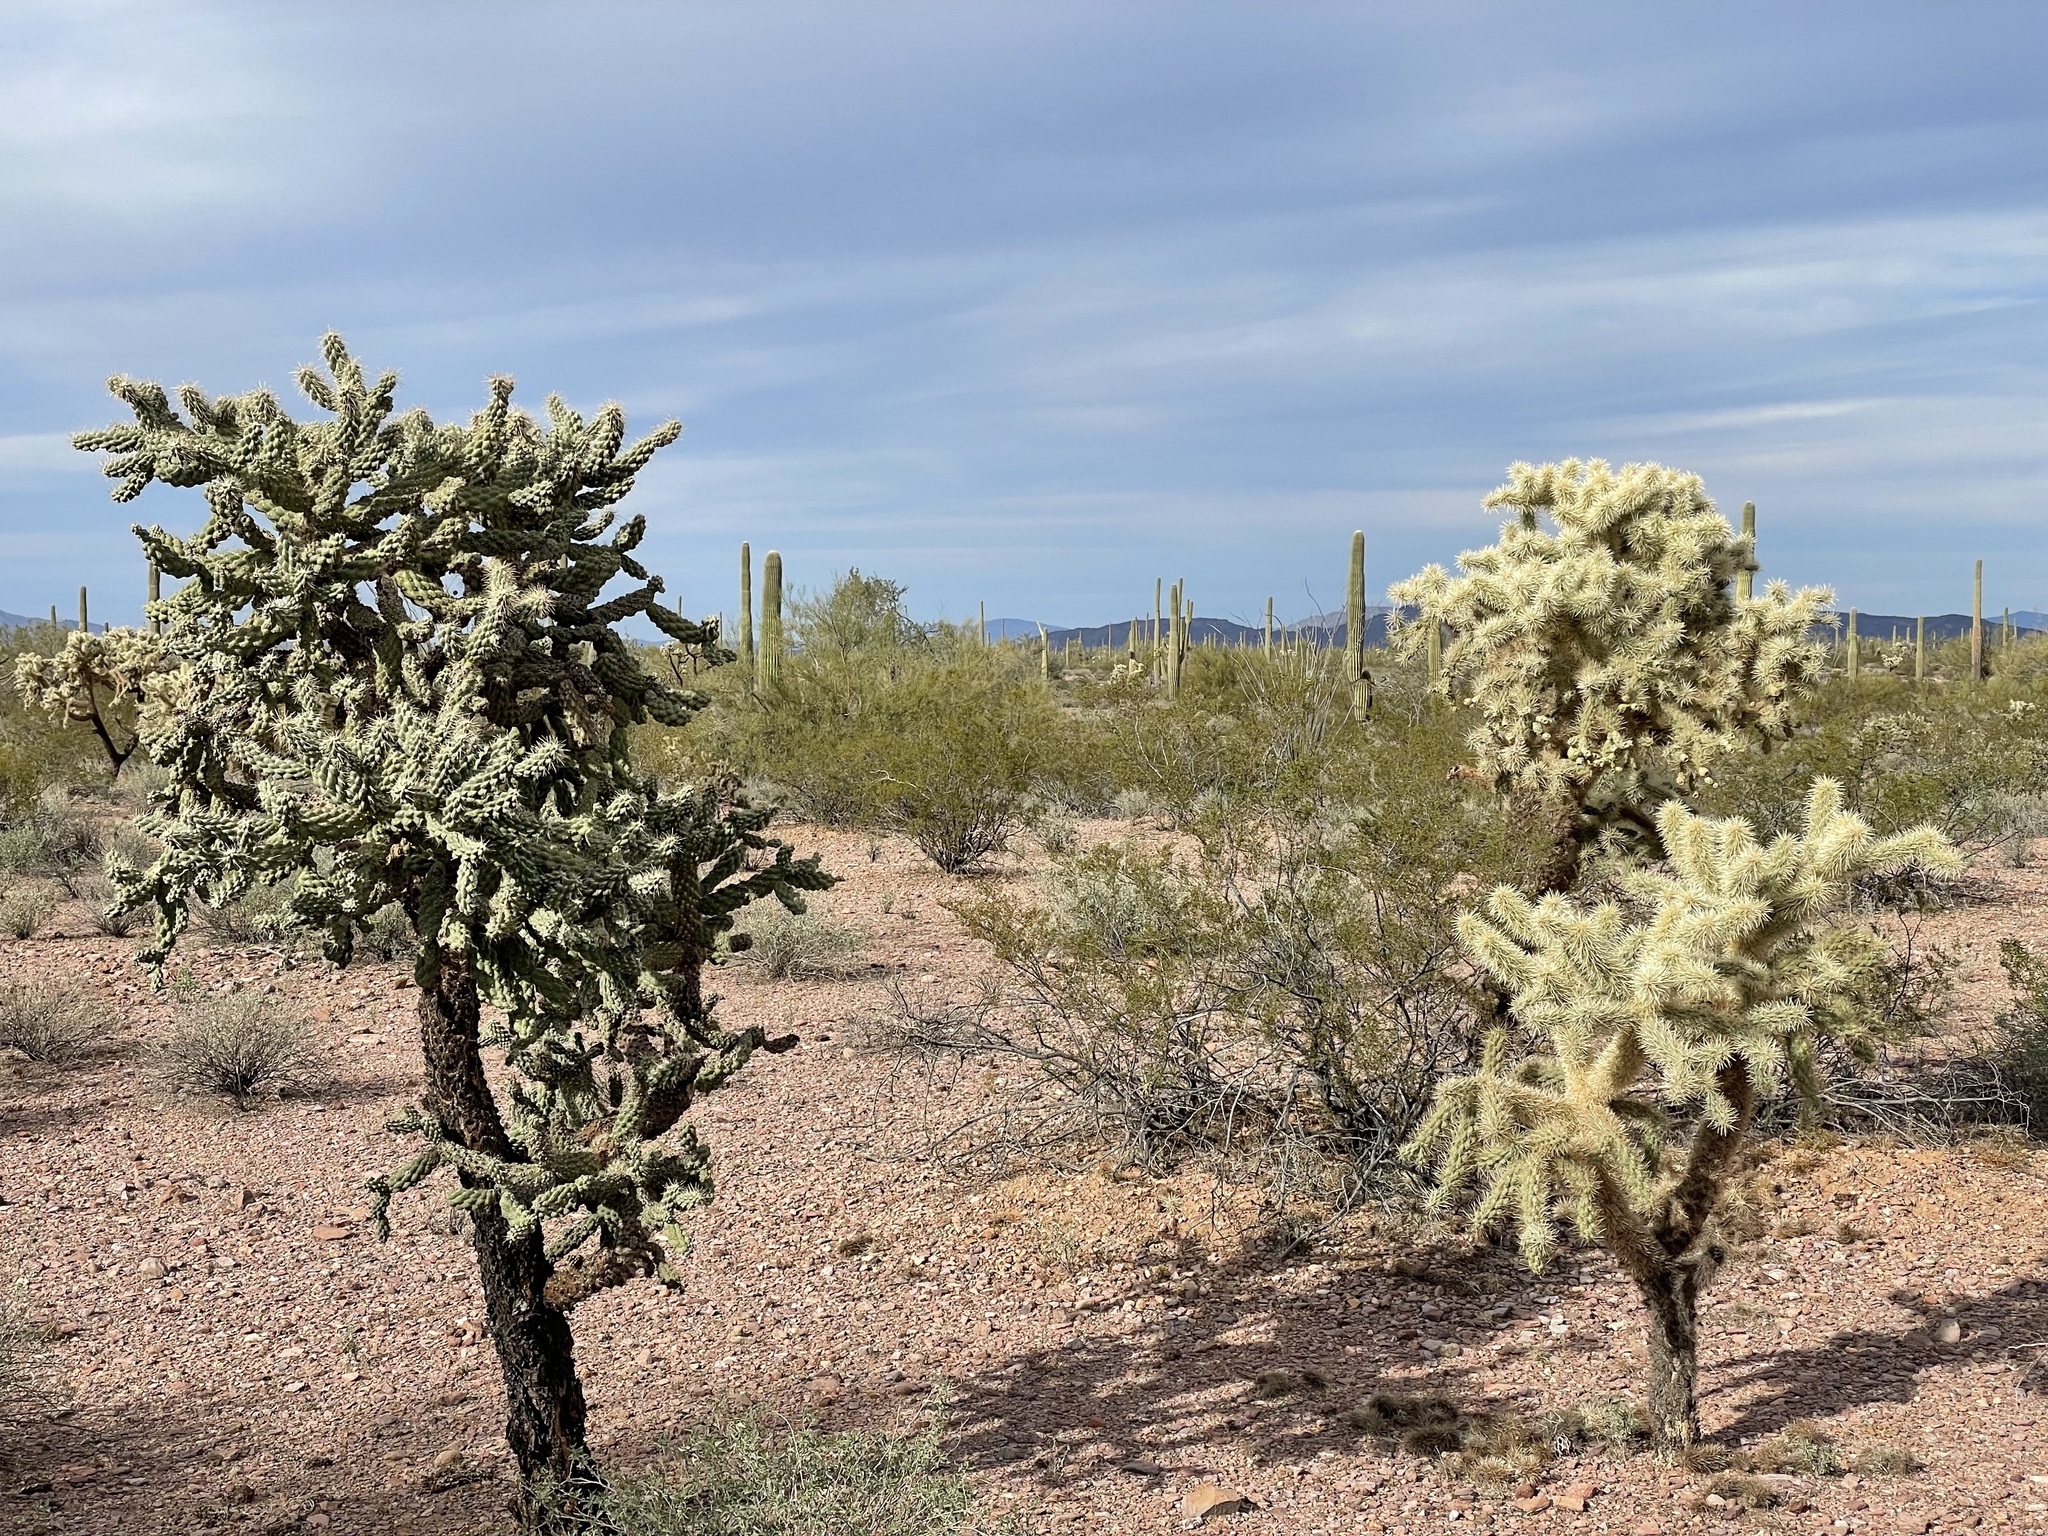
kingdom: Plantae
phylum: Tracheophyta
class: Magnoliopsida
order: Caryophyllales
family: Cactaceae
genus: Cylindropuntia
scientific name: Cylindropuntia fulgida
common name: Jumping cholla
